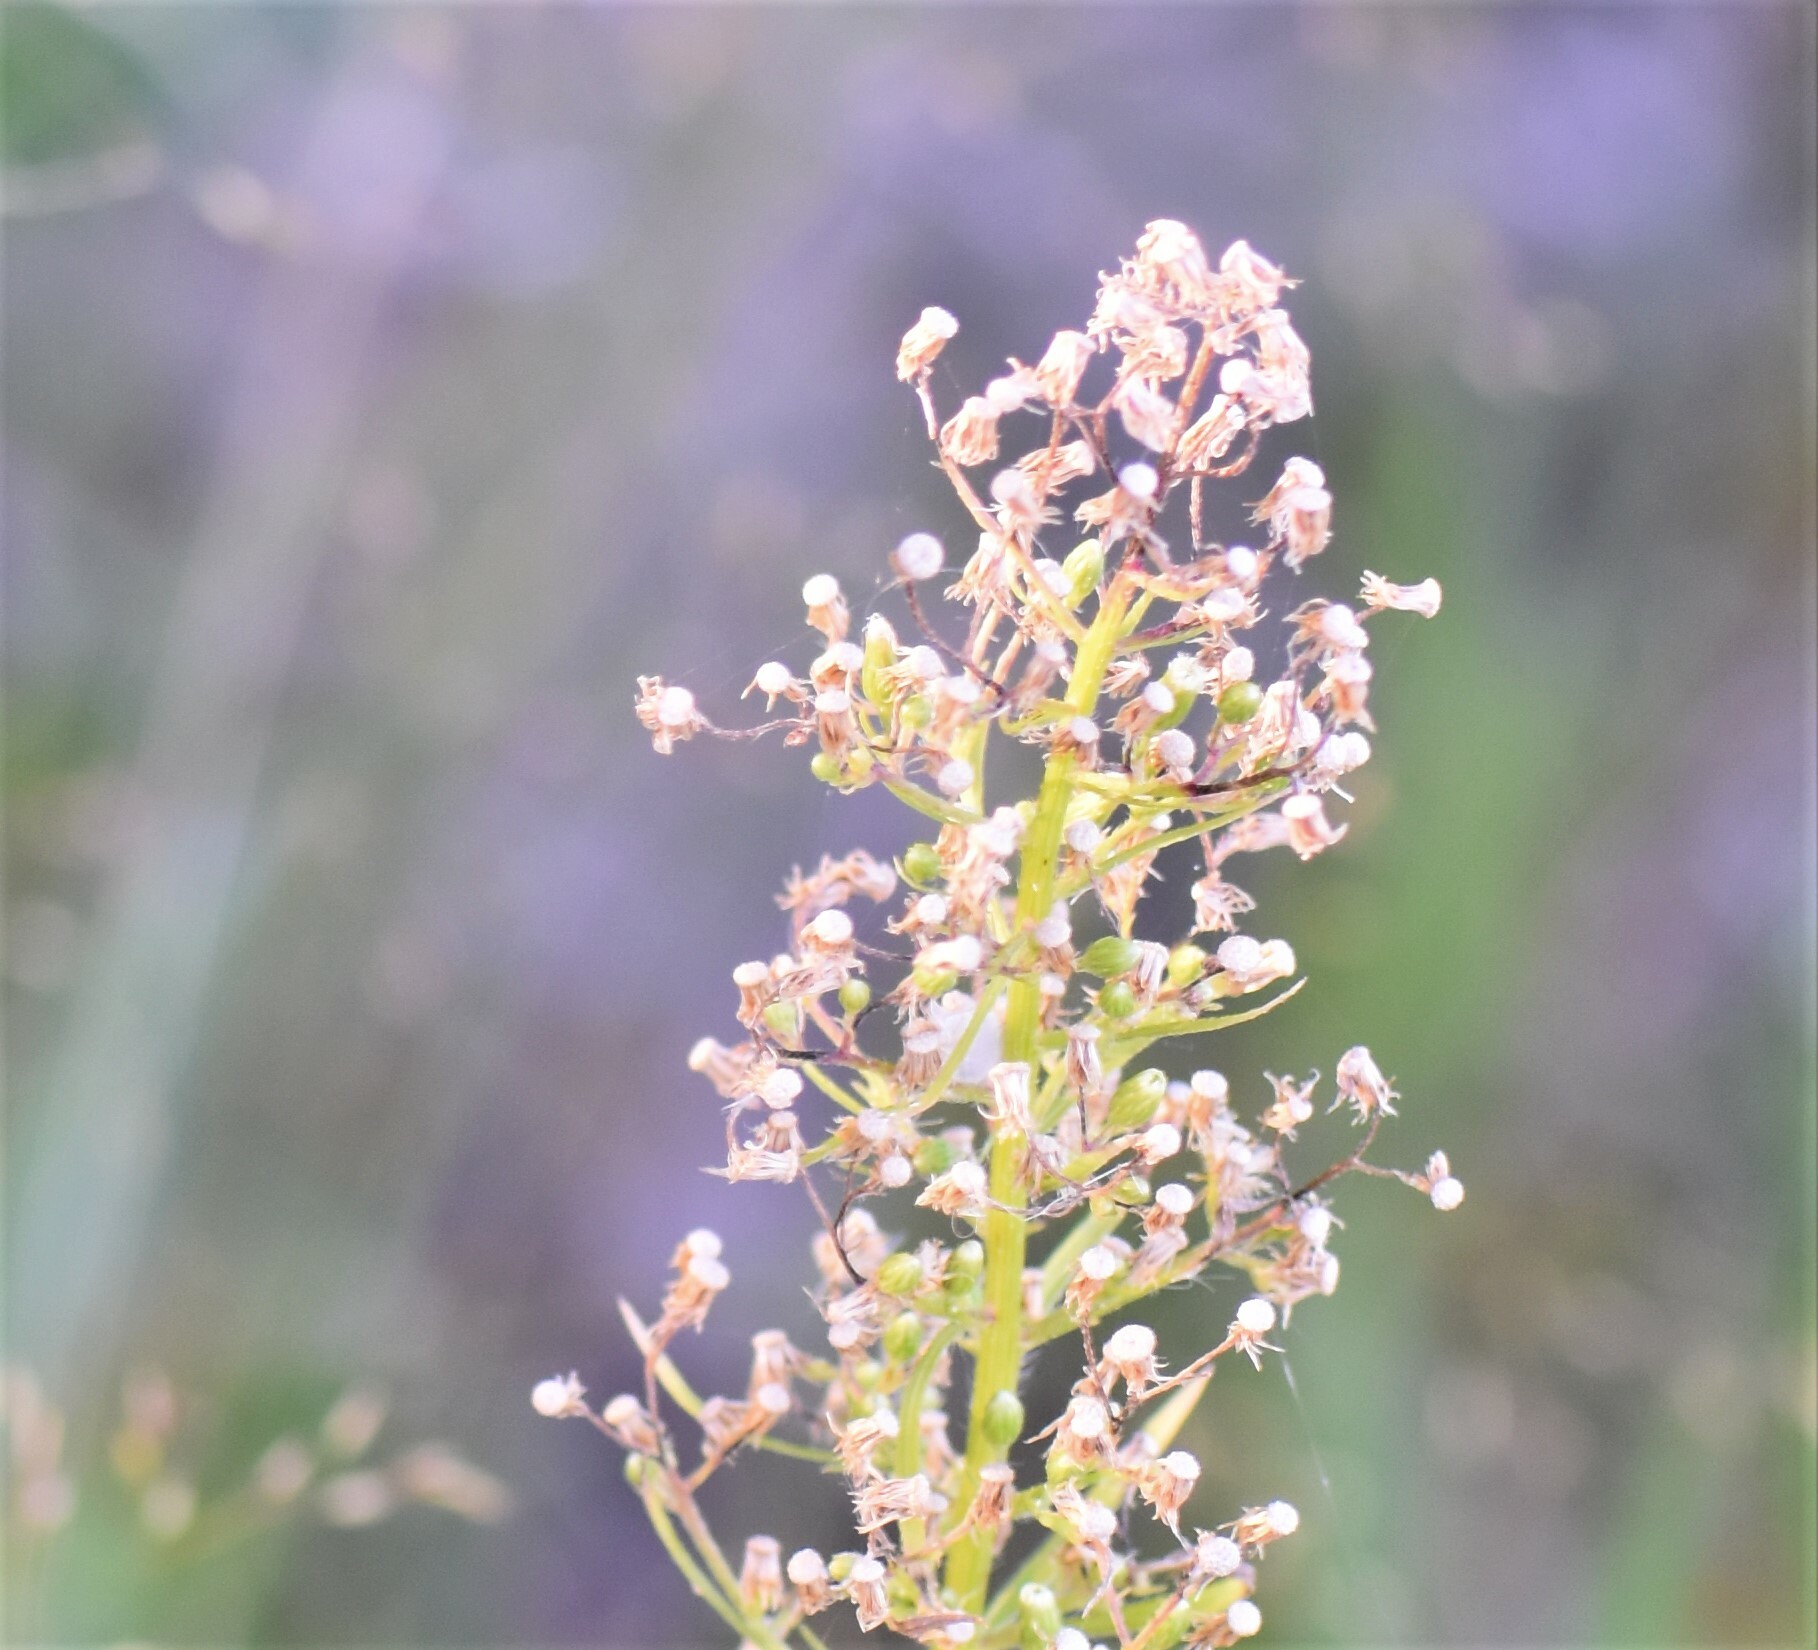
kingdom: Plantae
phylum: Tracheophyta
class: Magnoliopsida
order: Asterales
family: Asteraceae
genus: Erigeron
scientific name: Erigeron canadensis
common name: Canadian fleabane
